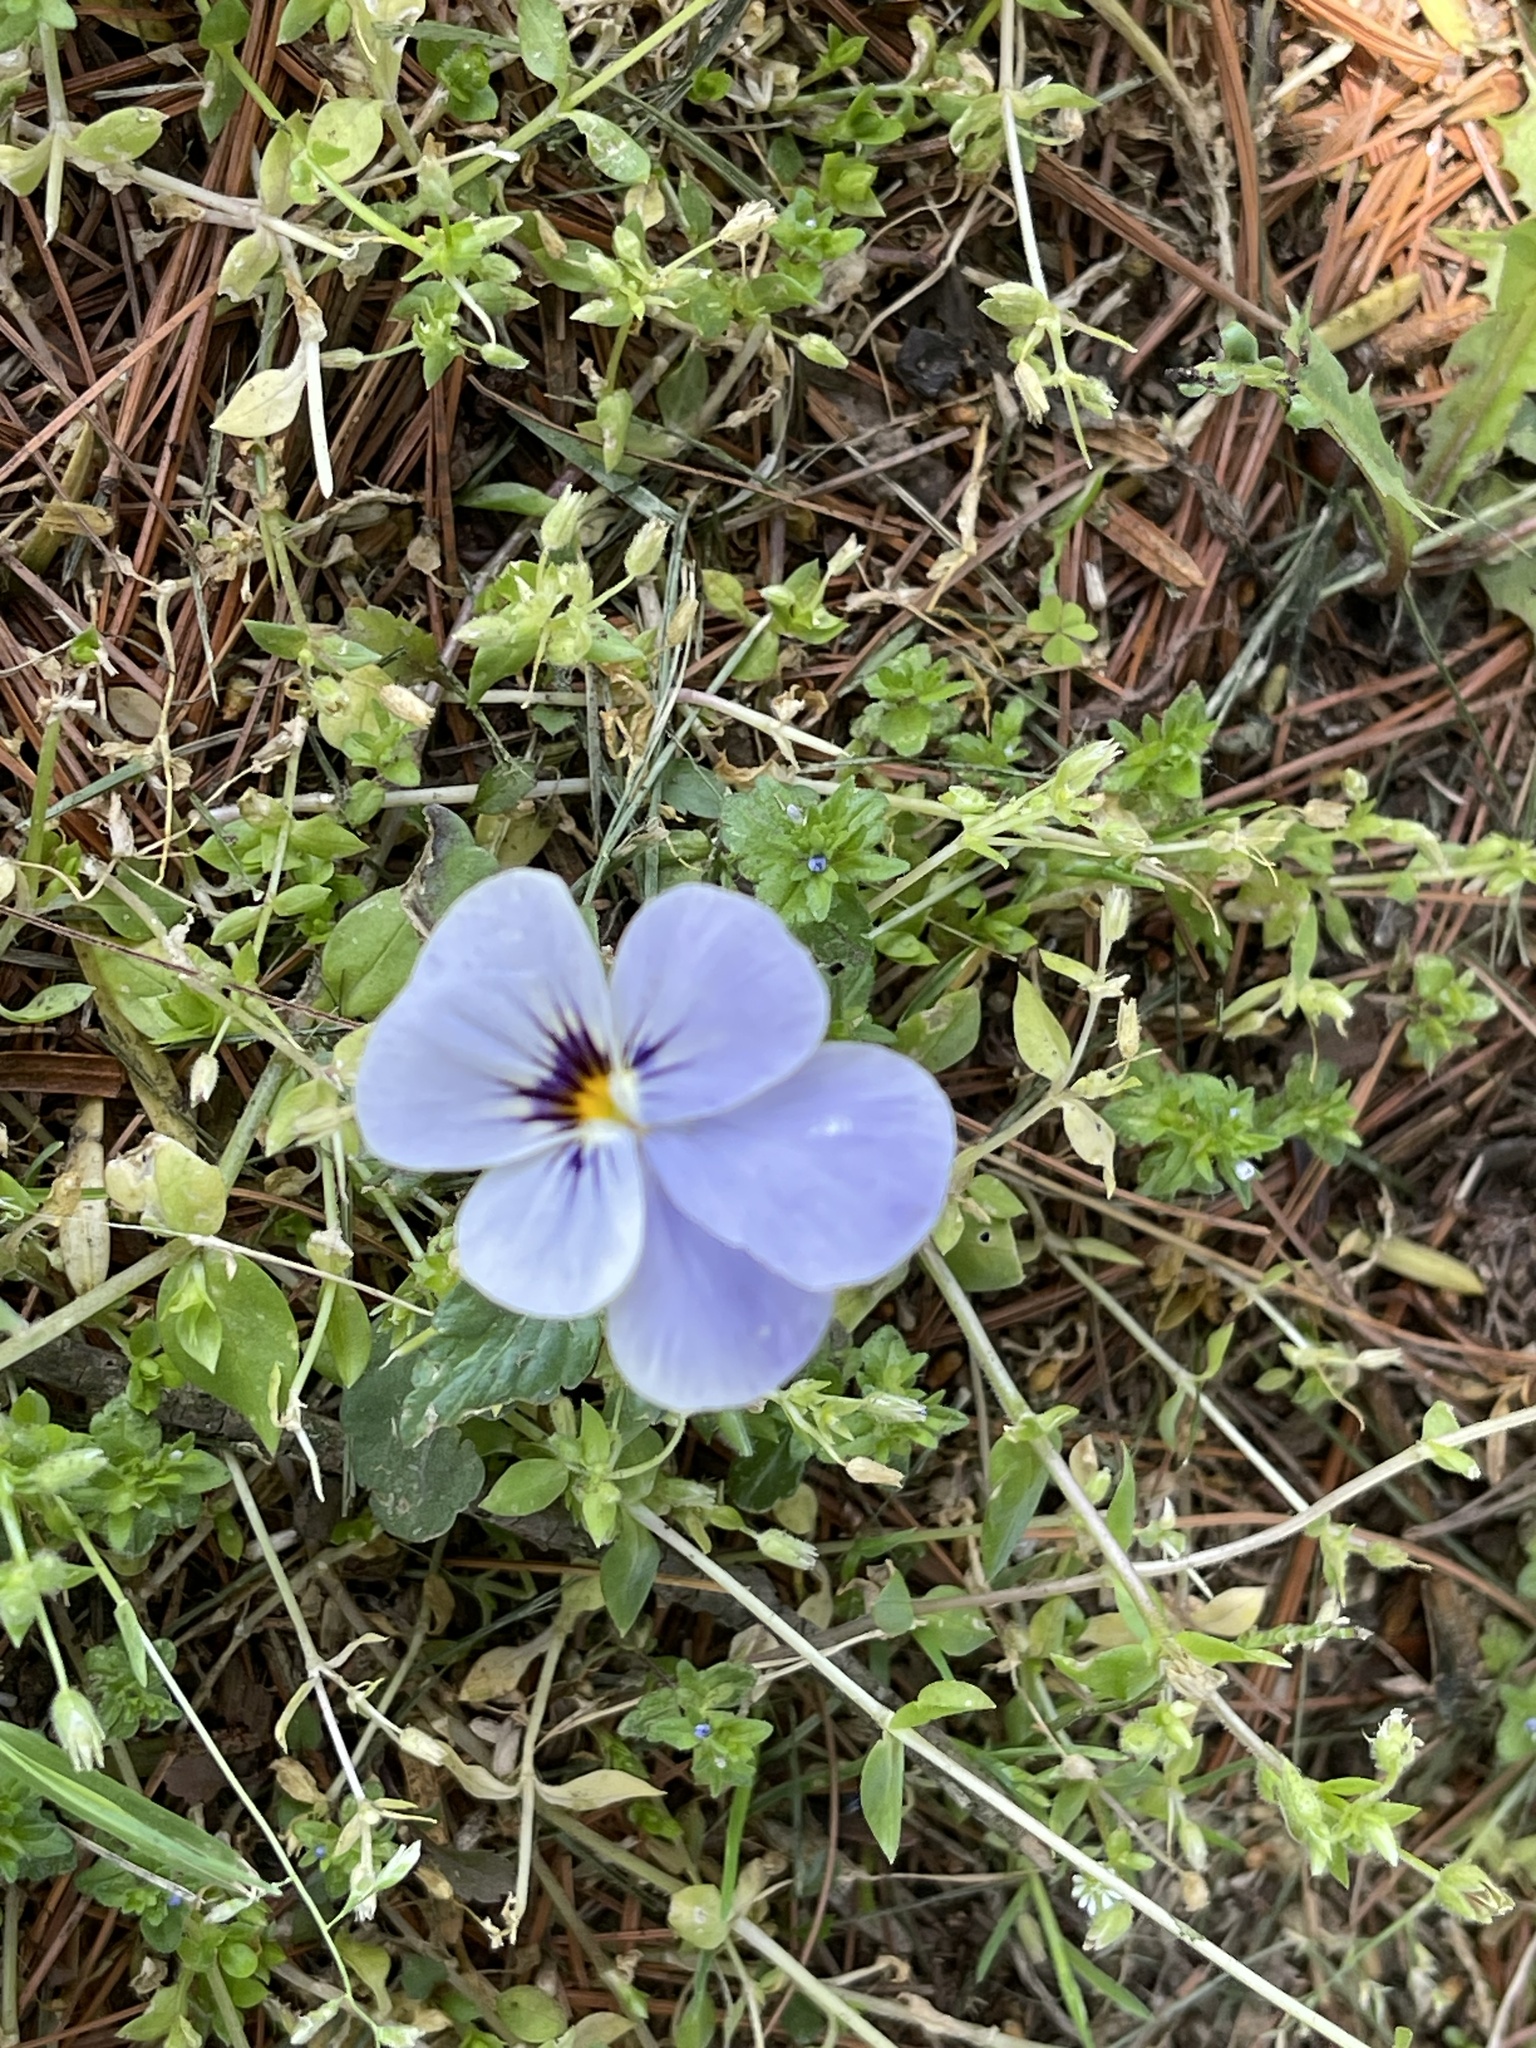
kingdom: Plantae
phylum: Tracheophyta
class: Magnoliopsida
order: Malpighiales
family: Violaceae
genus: Viola
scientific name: Viola williamsii
